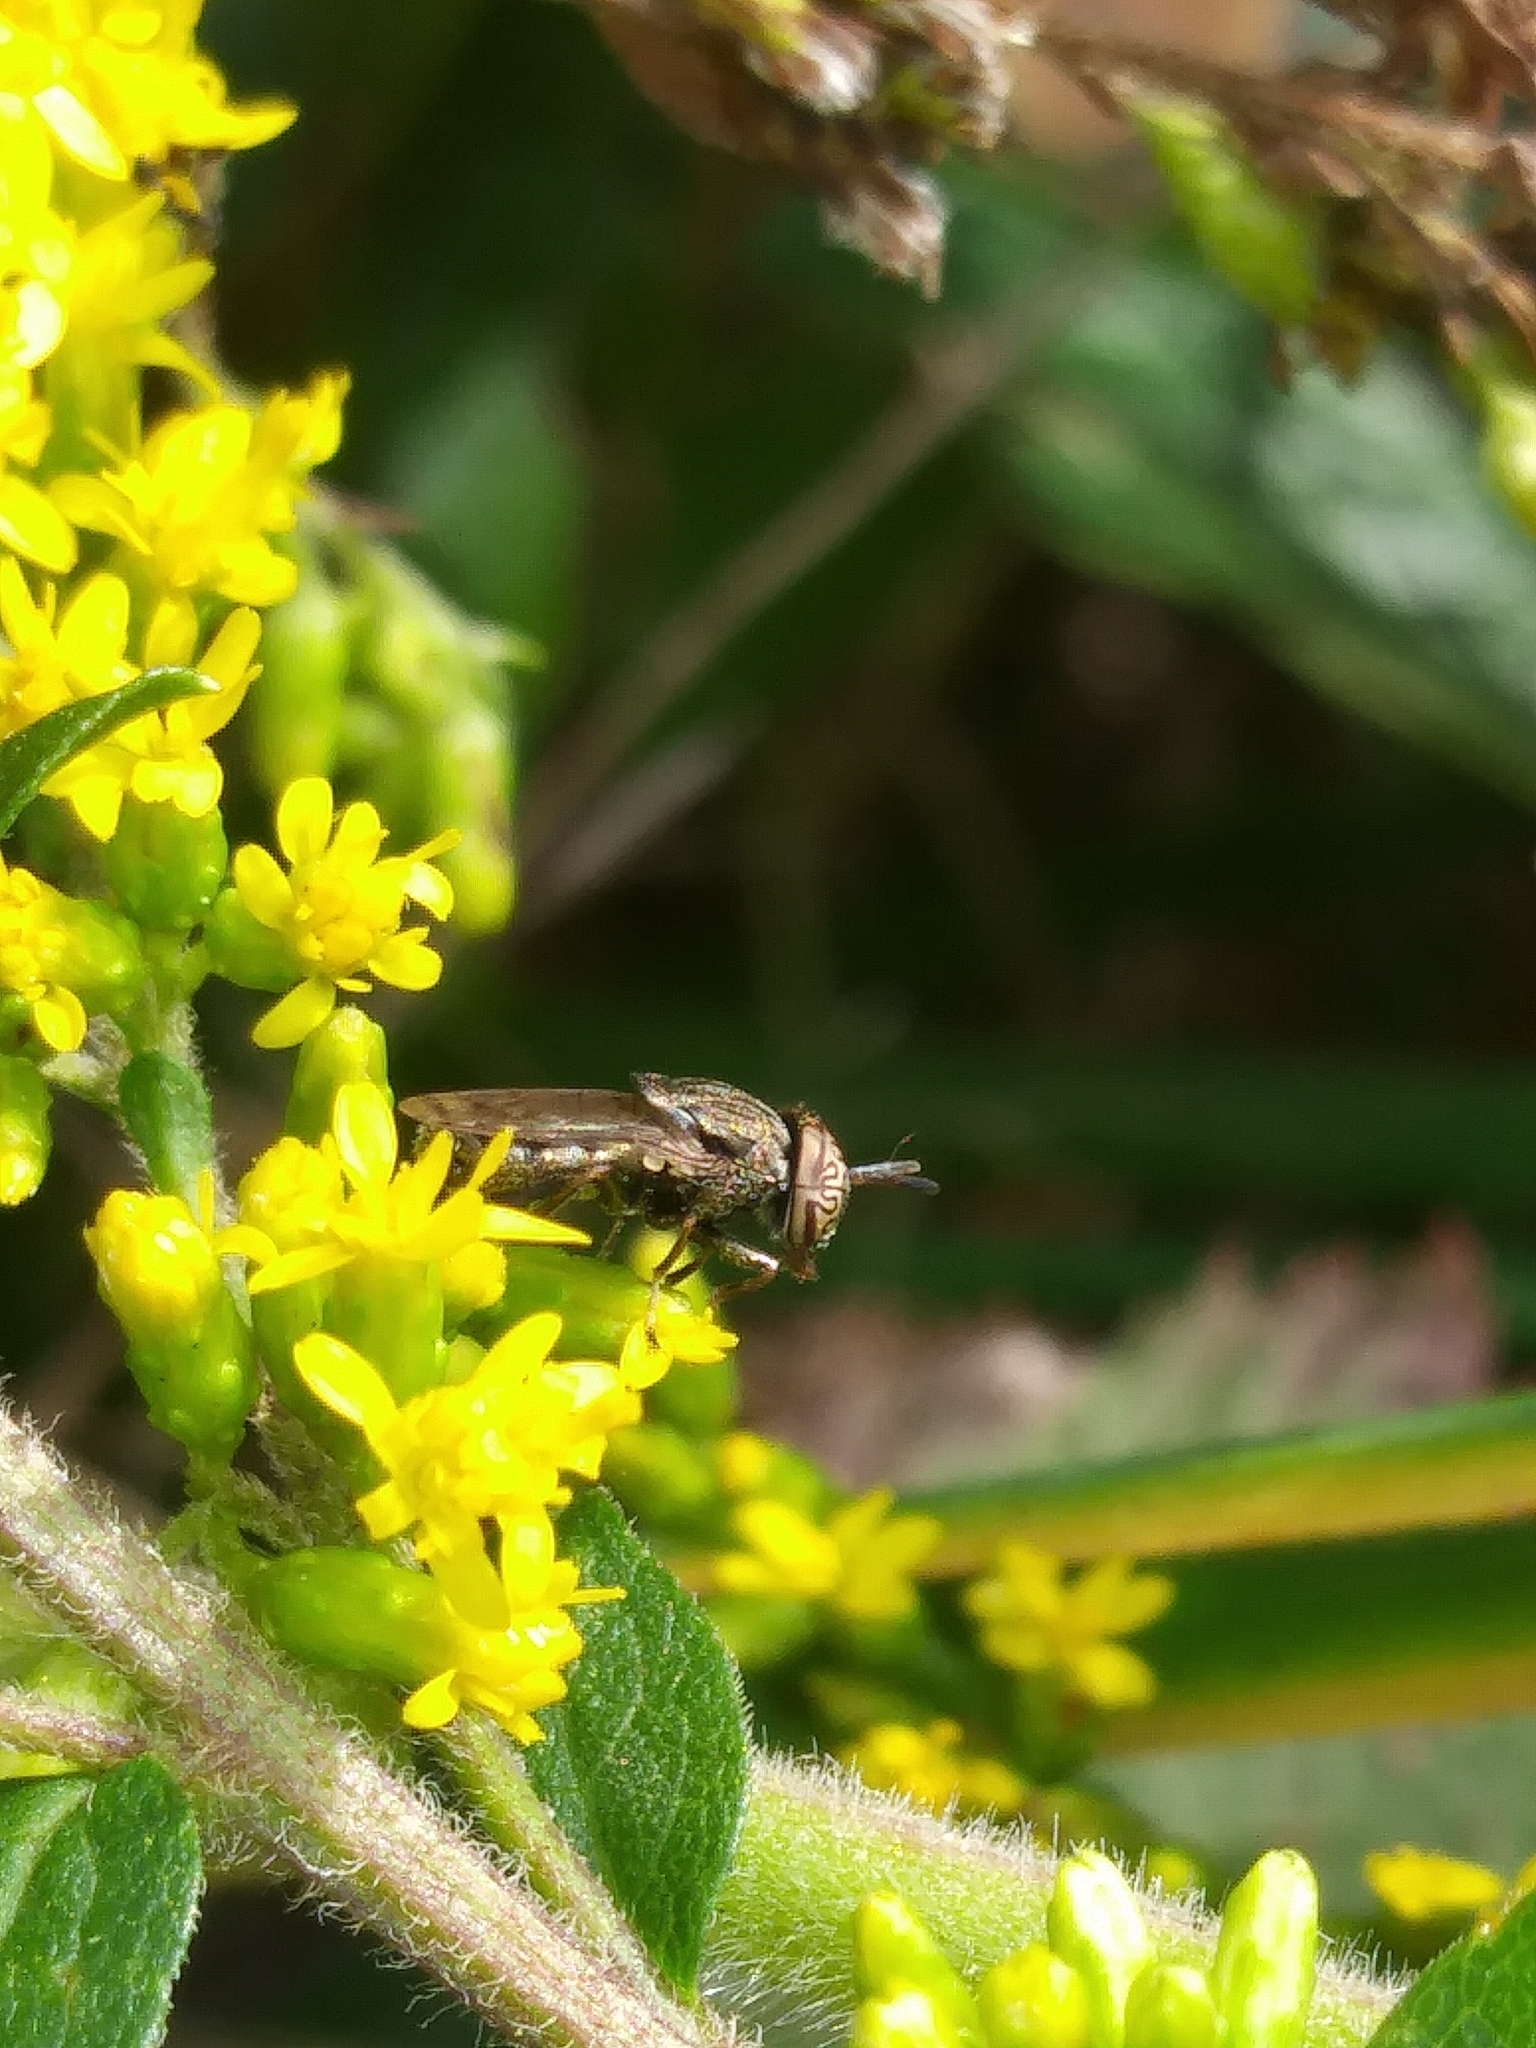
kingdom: Animalia
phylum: Arthropoda
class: Insecta
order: Diptera
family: Syrphidae
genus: Orthonevra
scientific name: Orthonevra nitida
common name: Wavy mucksucker
